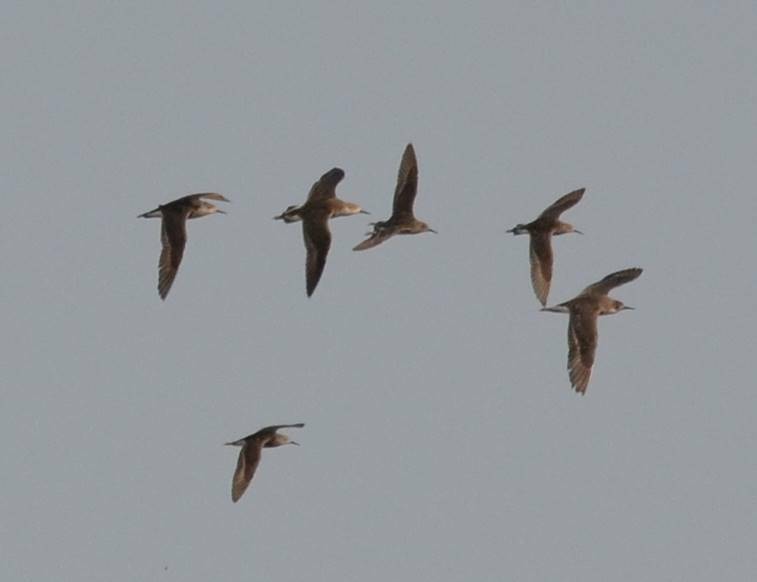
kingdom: Animalia
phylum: Chordata
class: Aves
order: Charadriiformes
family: Scolopacidae
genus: Calidris
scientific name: Calidris pugnax
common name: Ruff
